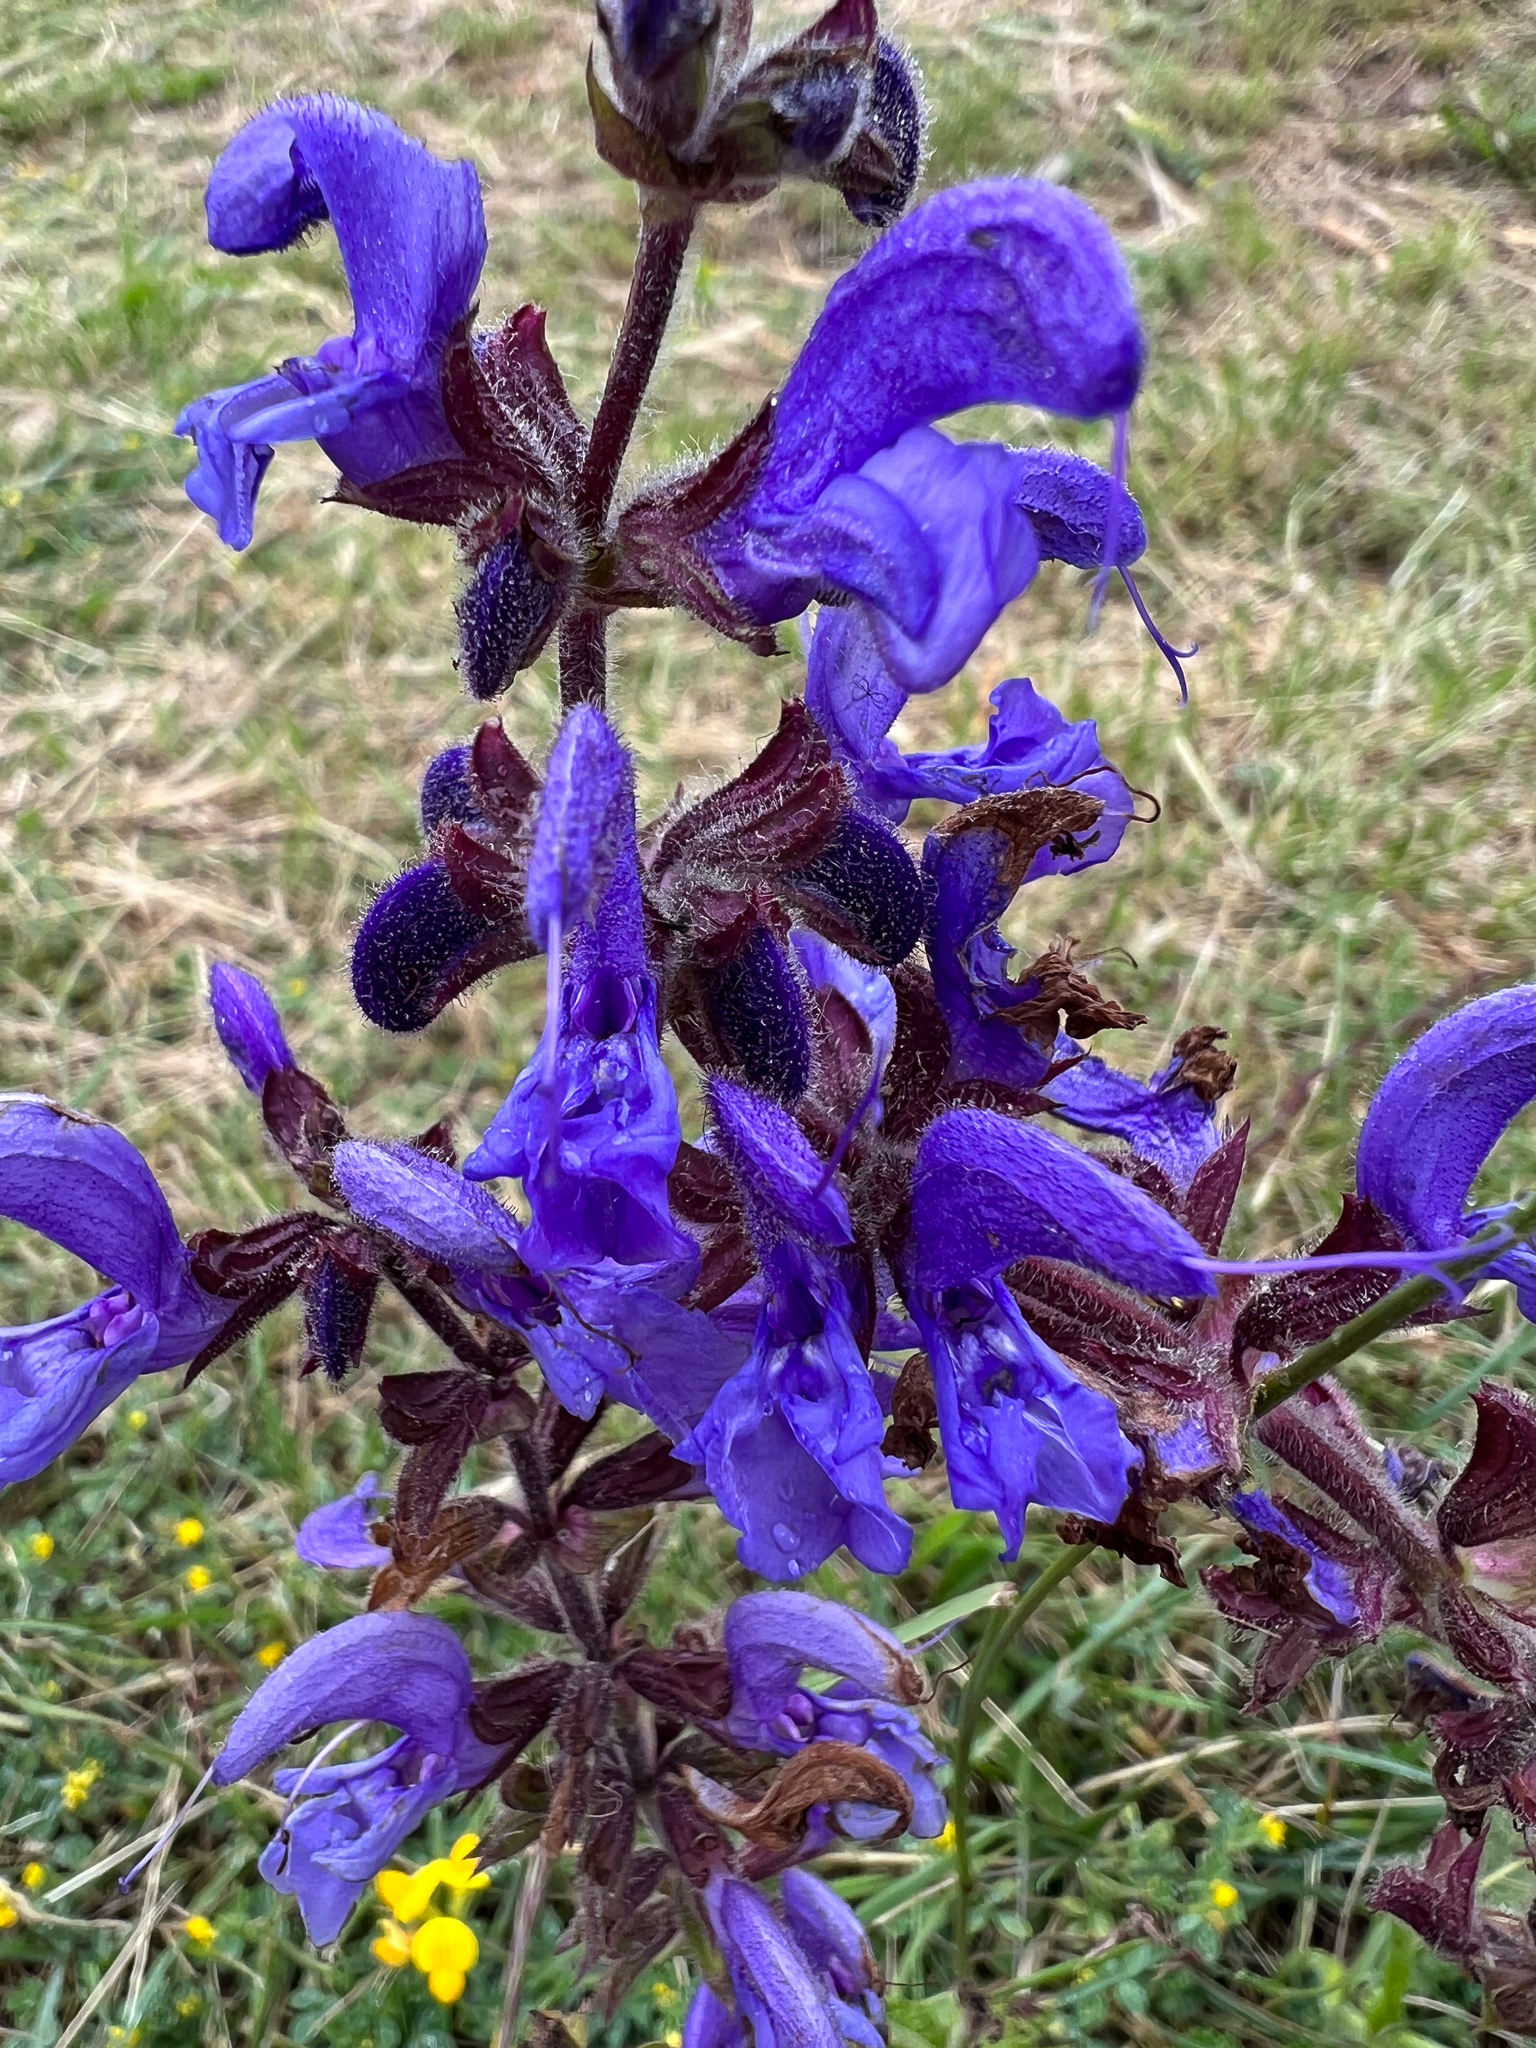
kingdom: Plantae
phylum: Tracheophyta
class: Magnoliopsida
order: Lamiales
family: Lamiaceae
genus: Salvia
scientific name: Salvia pratensis
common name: Meadow sage
